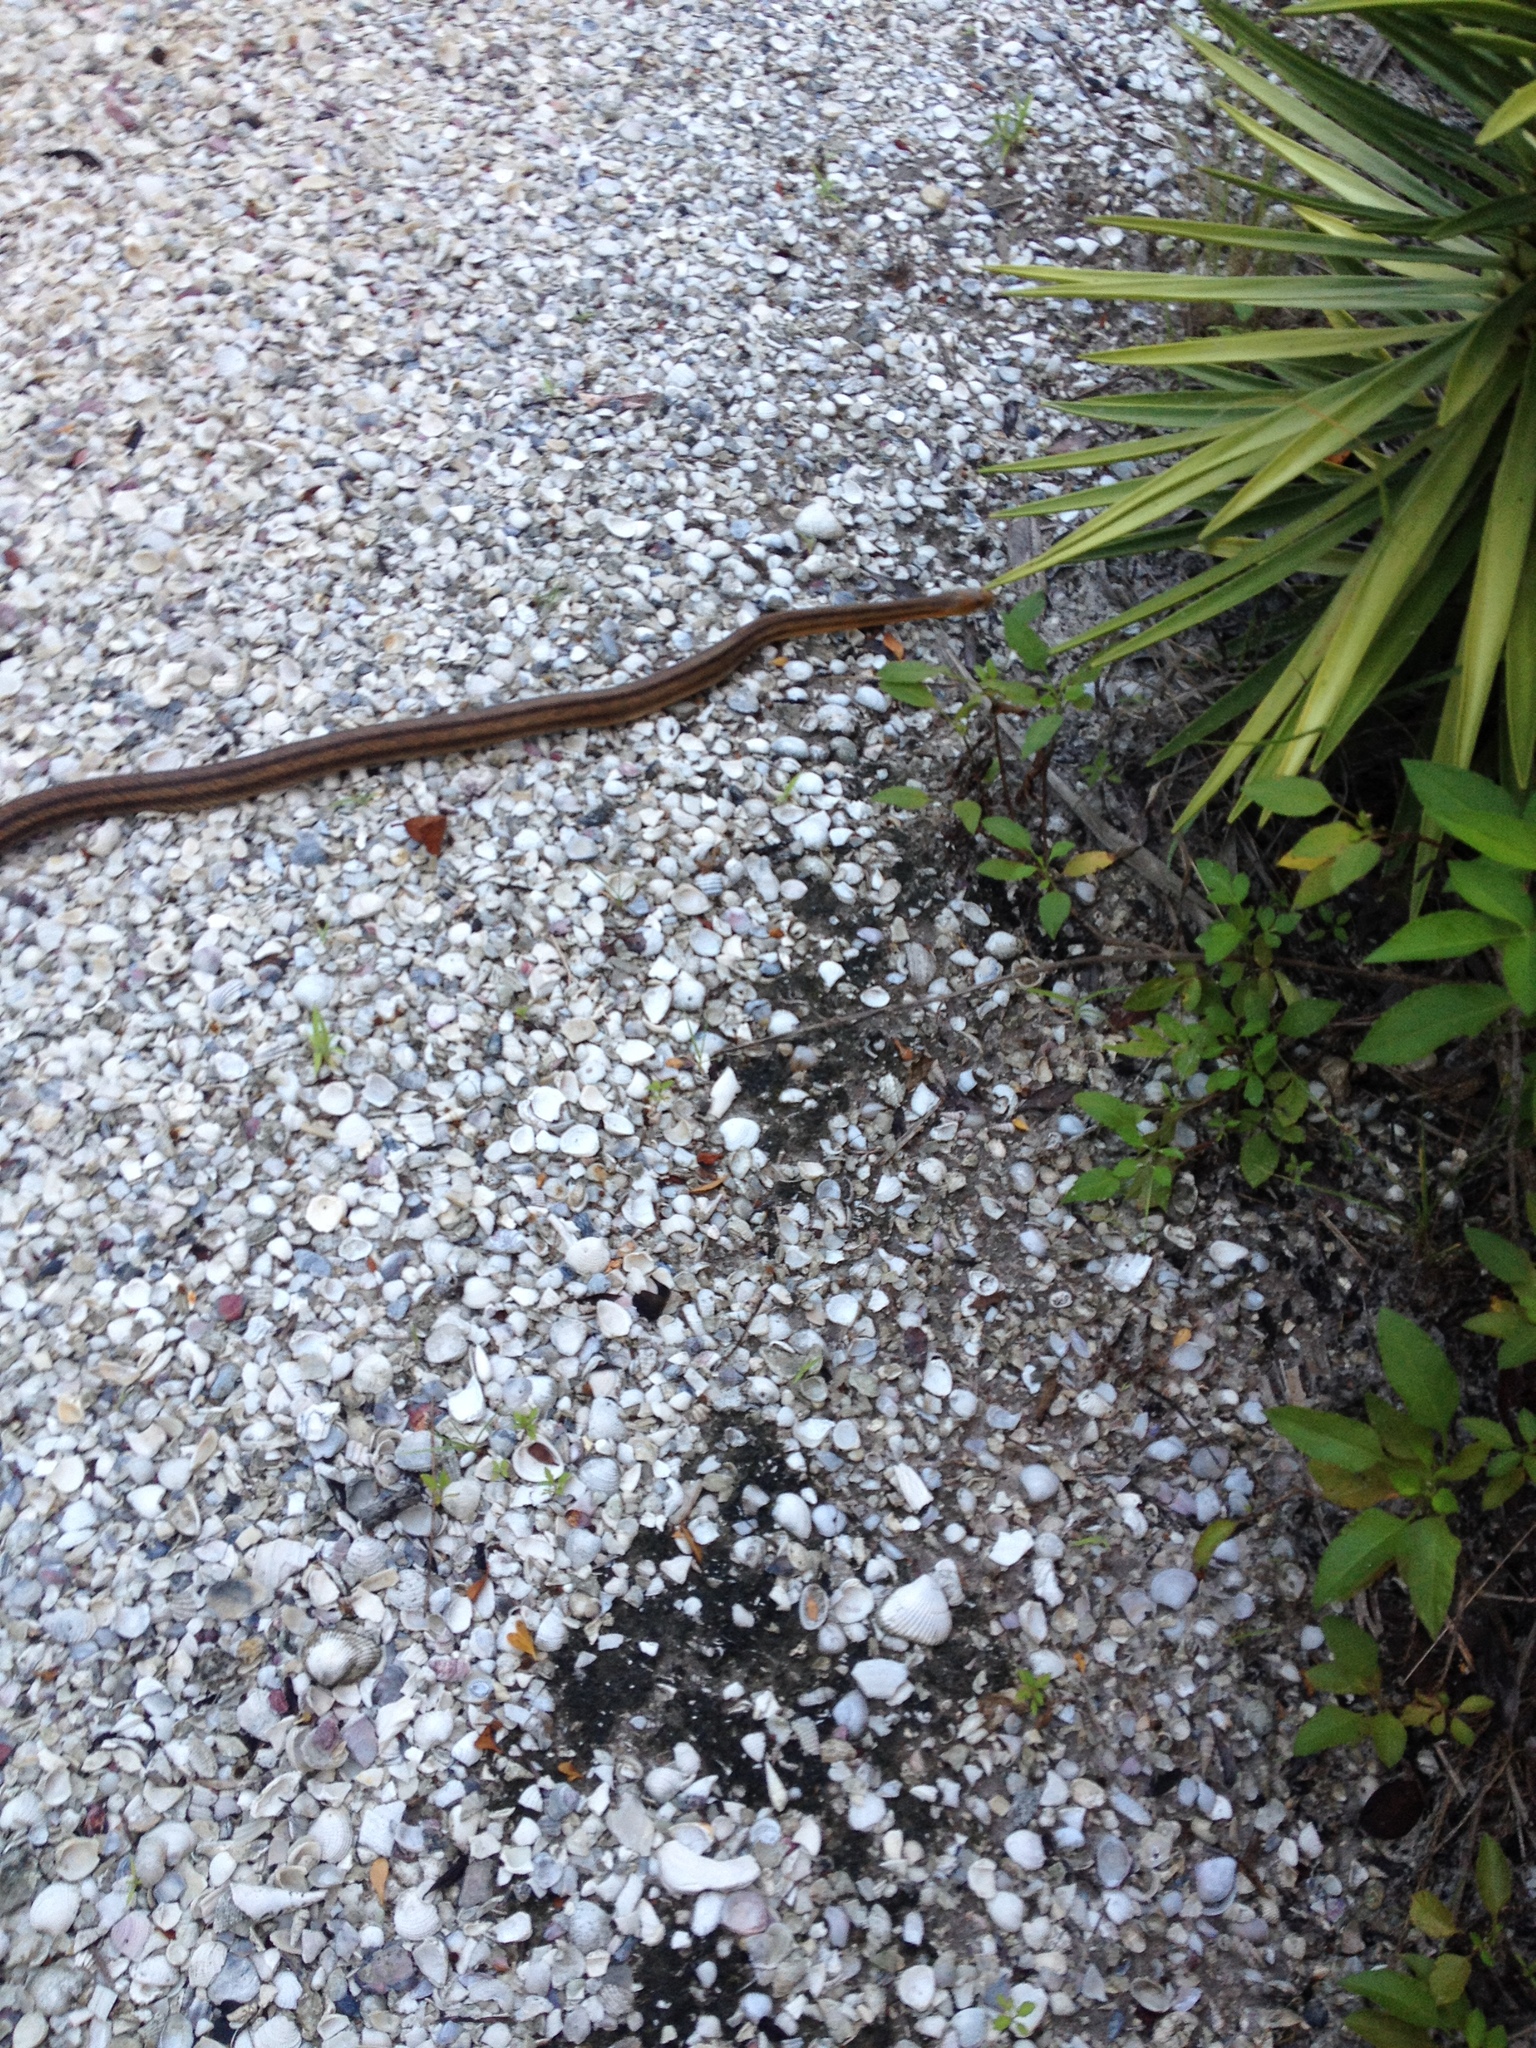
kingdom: Animalia
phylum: Chordata
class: Squamata
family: Colubridae
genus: Pantherophis
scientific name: Pantherophis alleghaniensis
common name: Eastern rat snake
